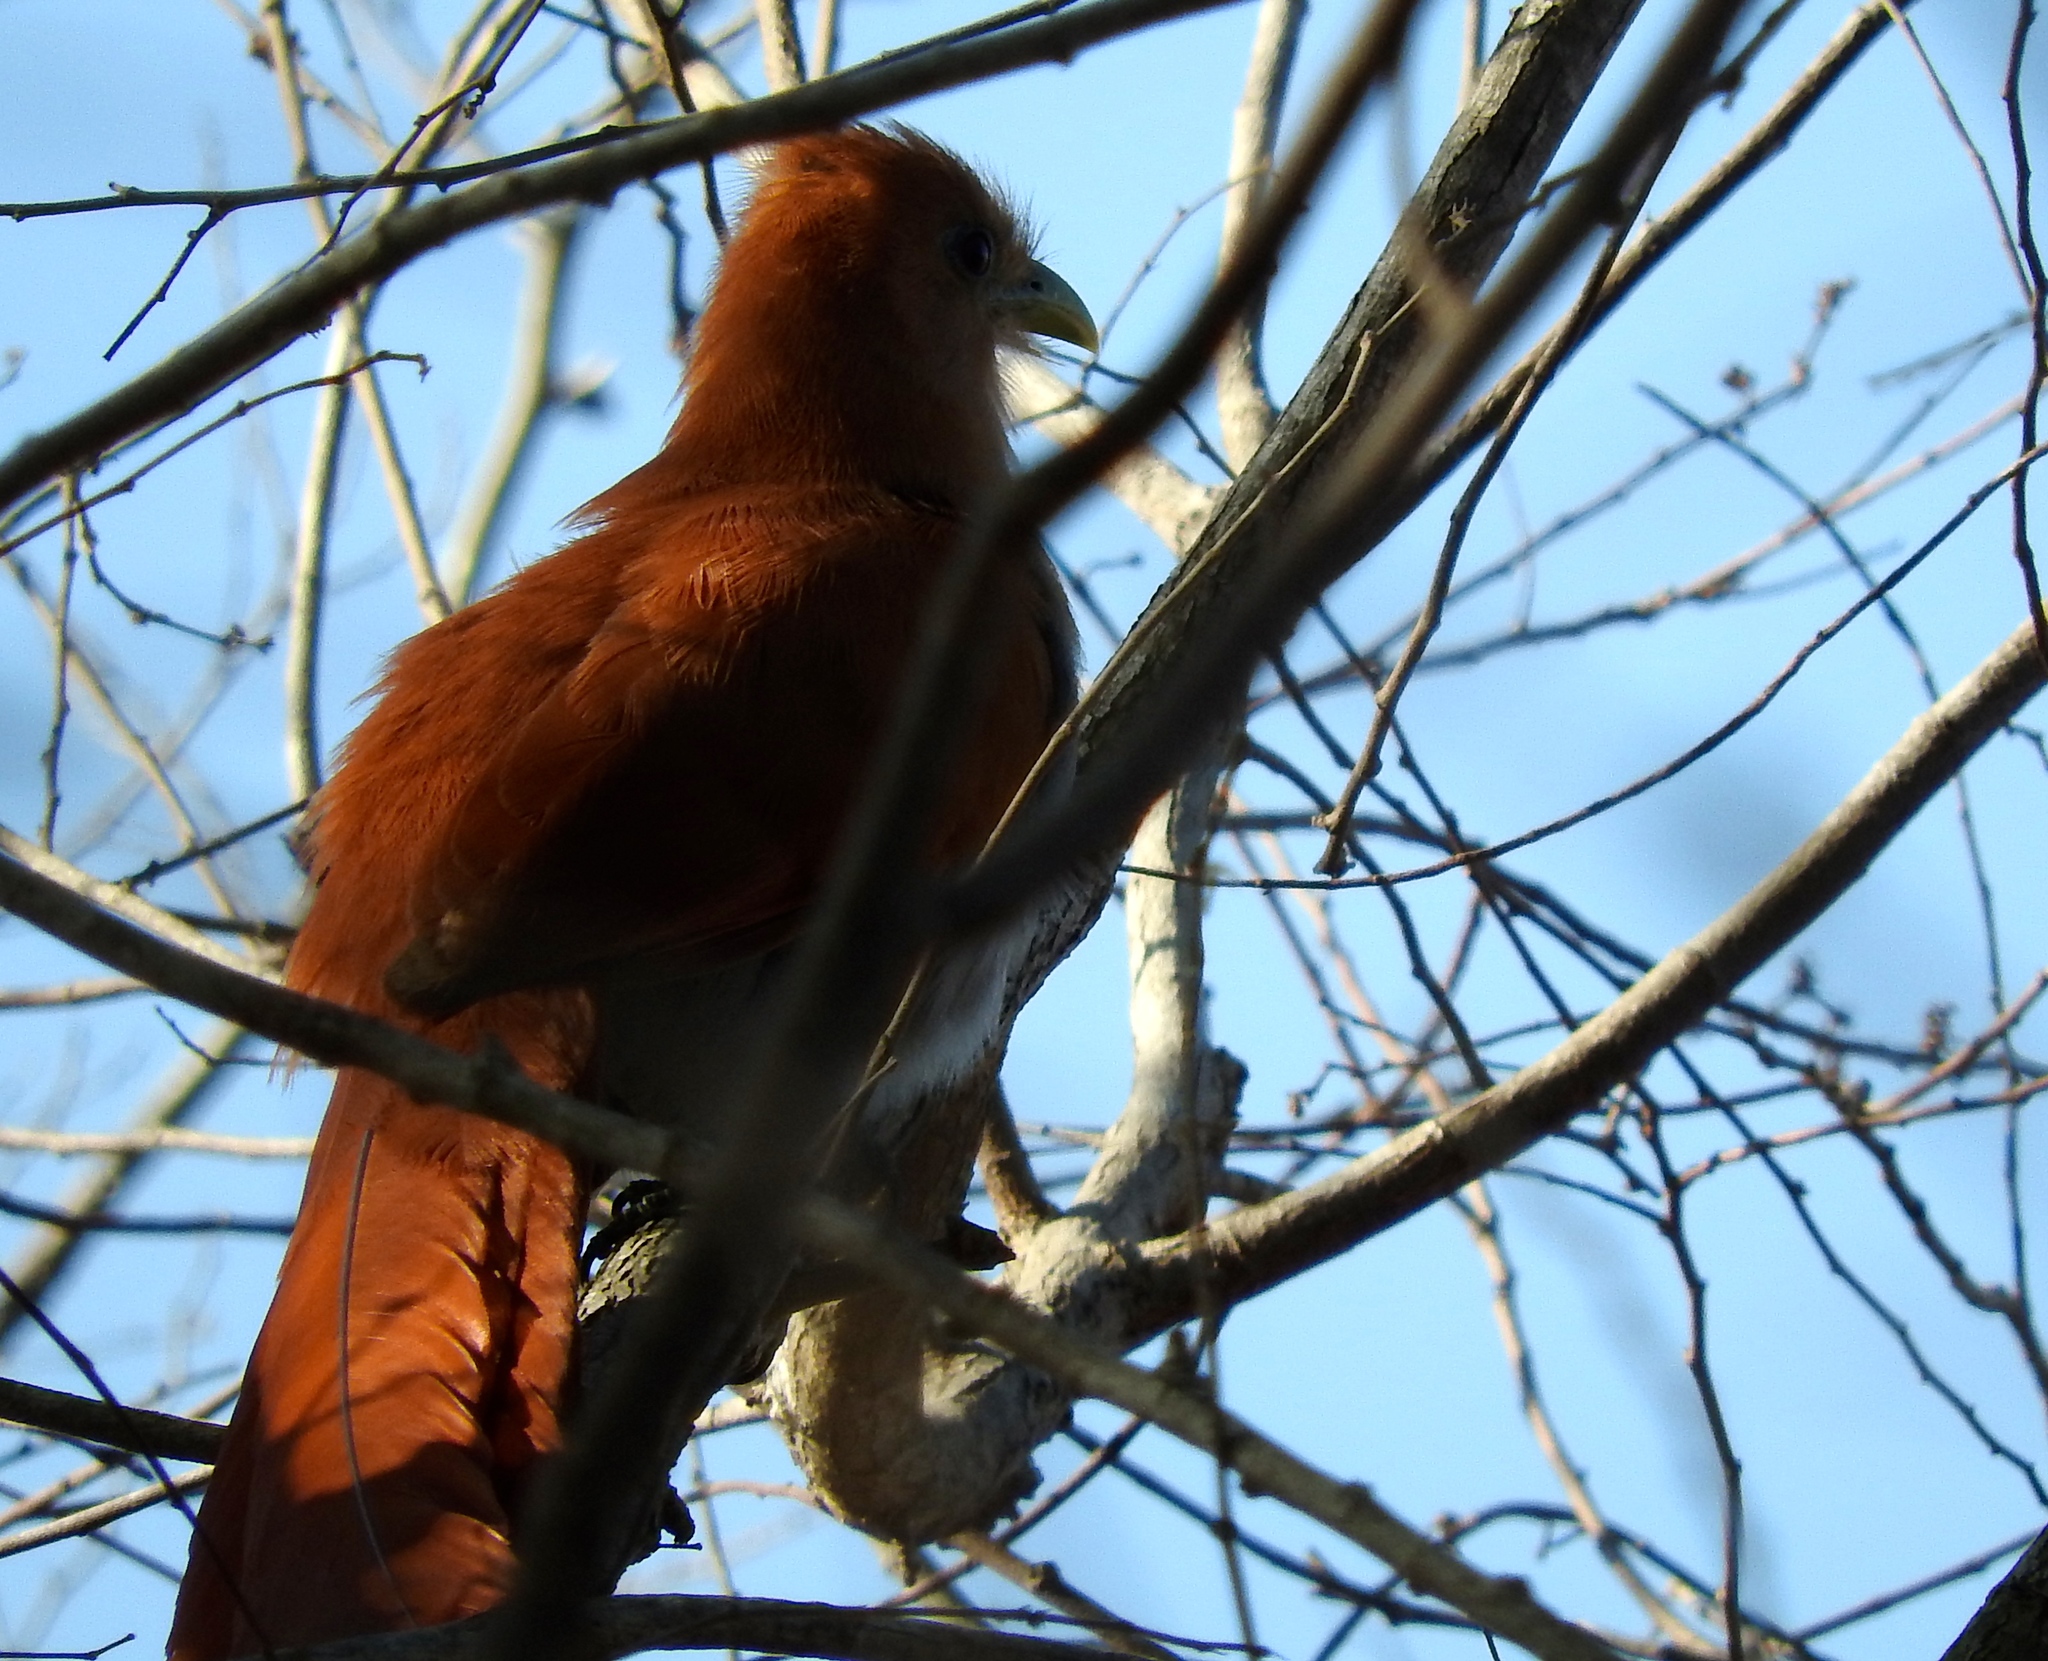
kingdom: Animalia
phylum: Chordata
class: Aves
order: Cuculiformes
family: Cuculidae
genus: Piaya
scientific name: Piaya cayana
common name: Squirrel cuckoo
